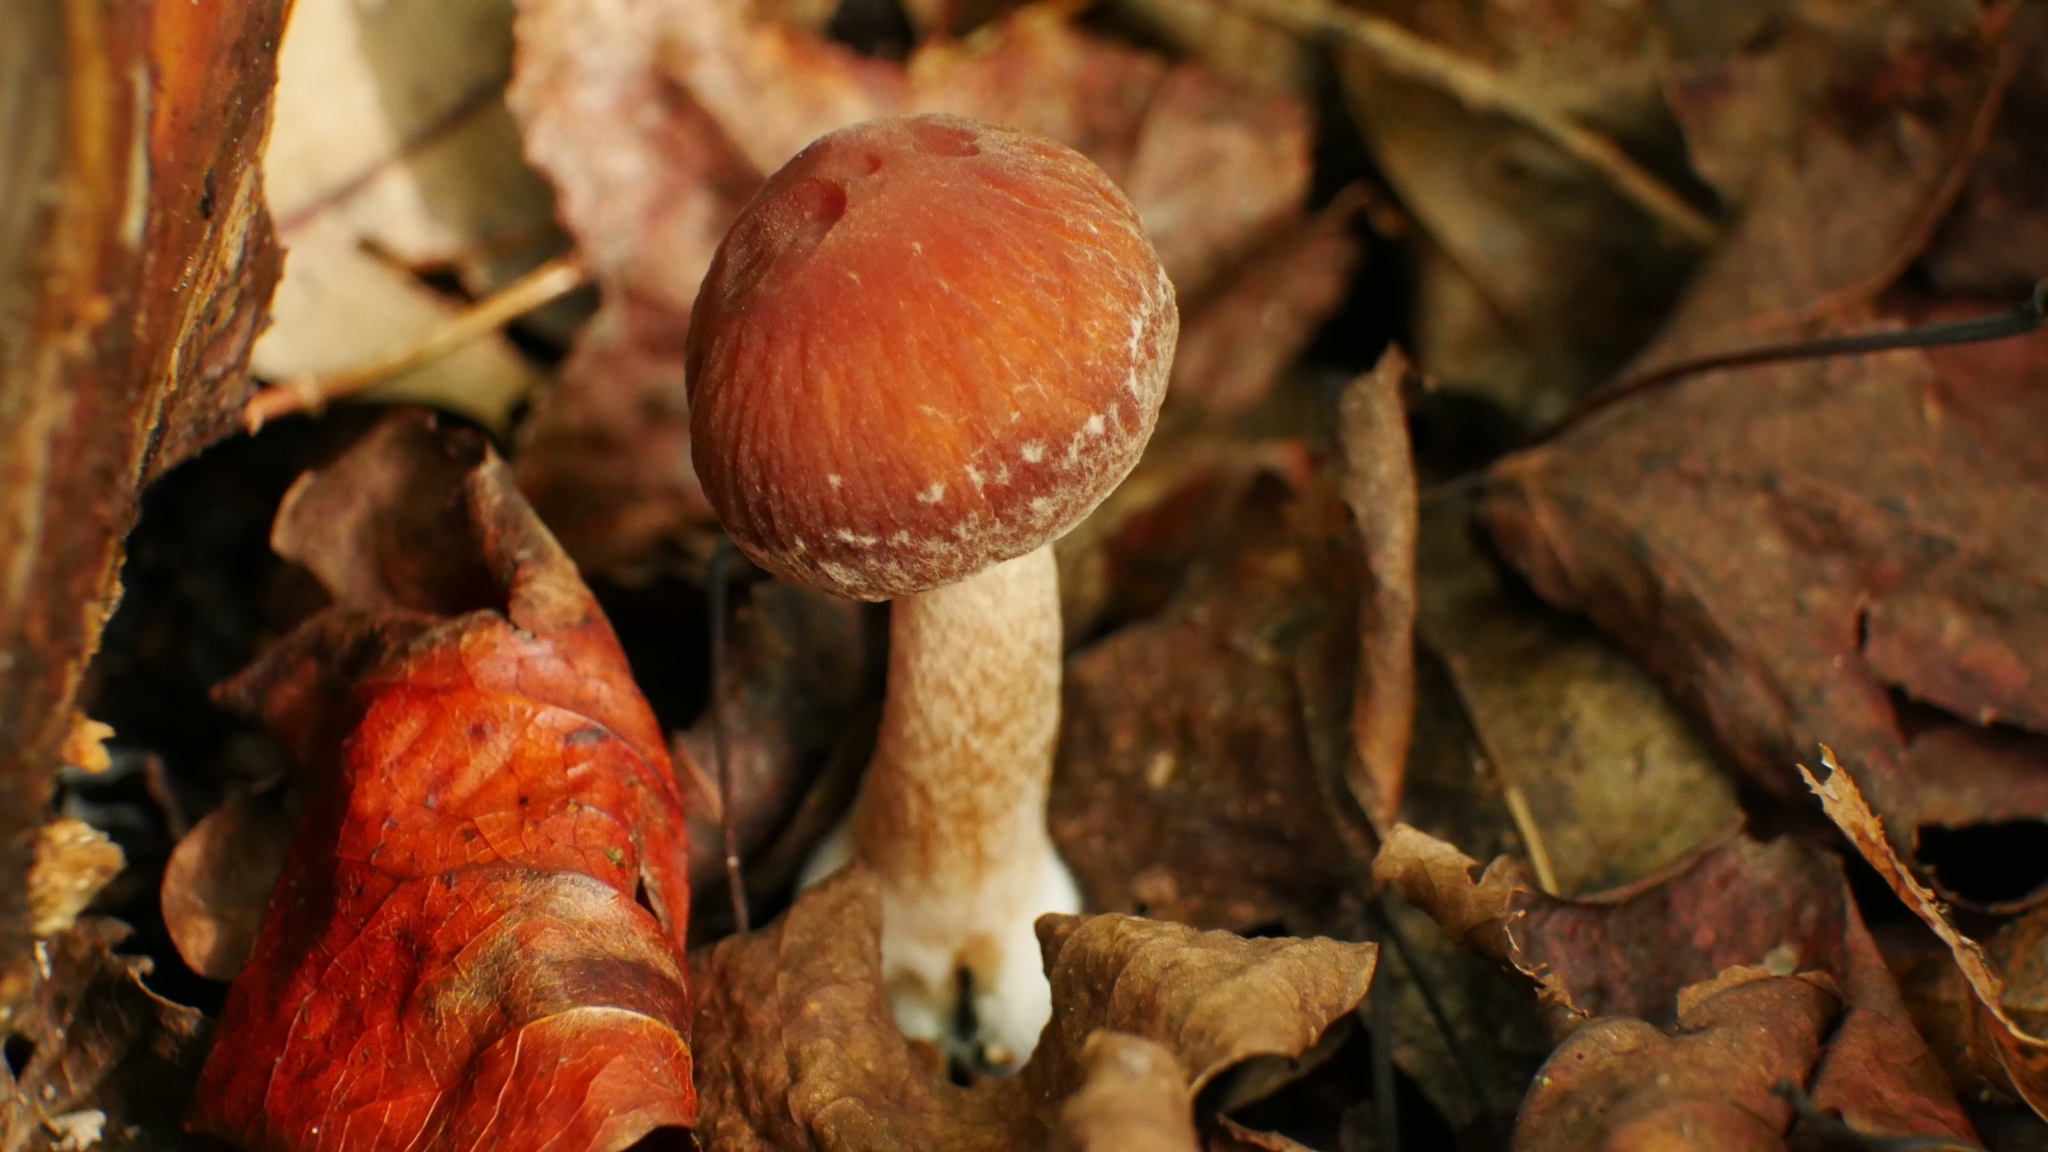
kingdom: Fungi
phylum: Basidiomycota
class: Agaricomycetes
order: Agaricales
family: Psathyrellaceae
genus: Typhrasa
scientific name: Typhrasa gossypina
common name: Wrinkled psathyrella
